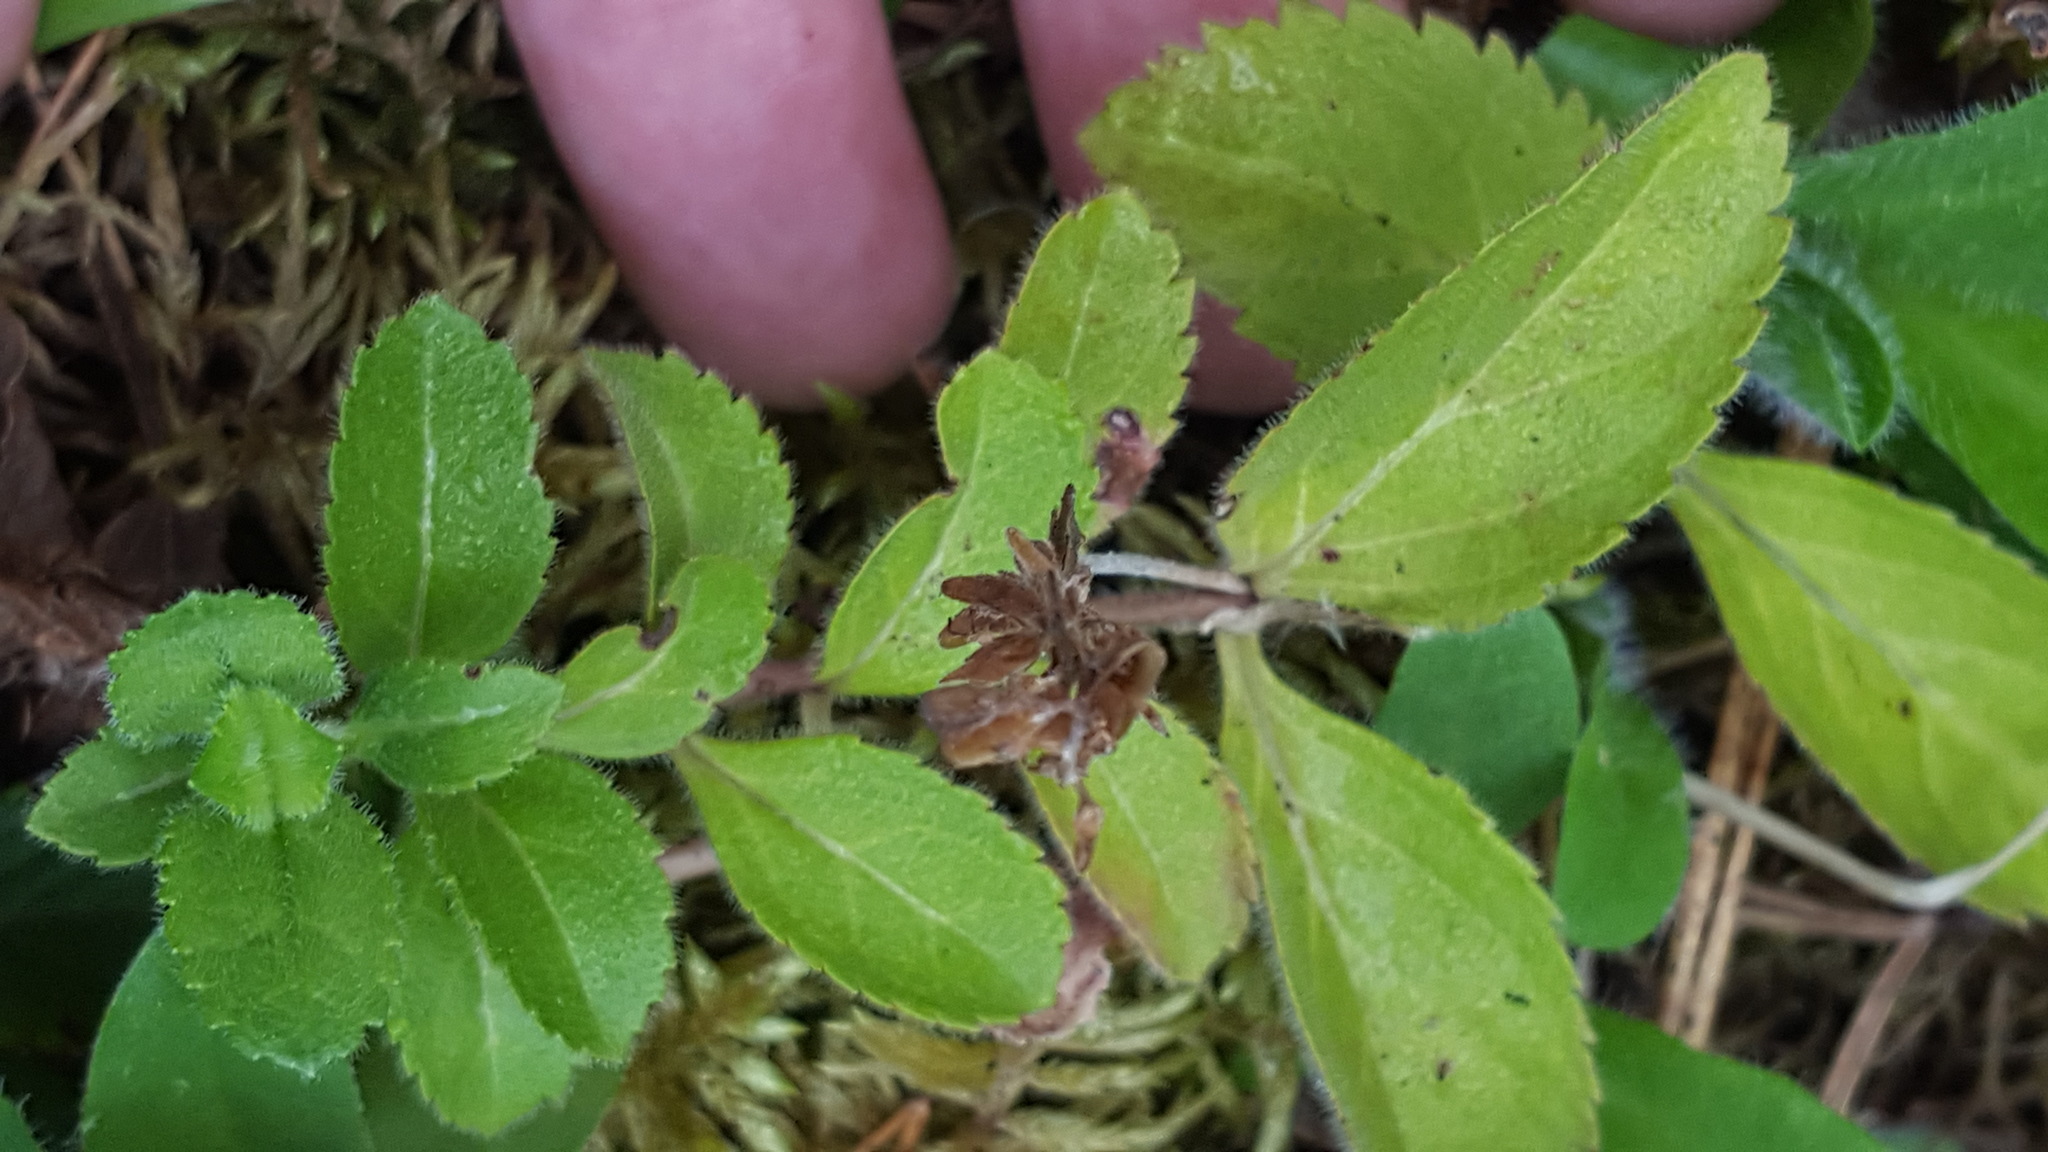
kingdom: Plantae
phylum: Tracheophyta
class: Magnoliopsida
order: Lamiales
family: Plantaginaceae
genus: Veronica
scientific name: Veronica officinalis
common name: Common speedwell
